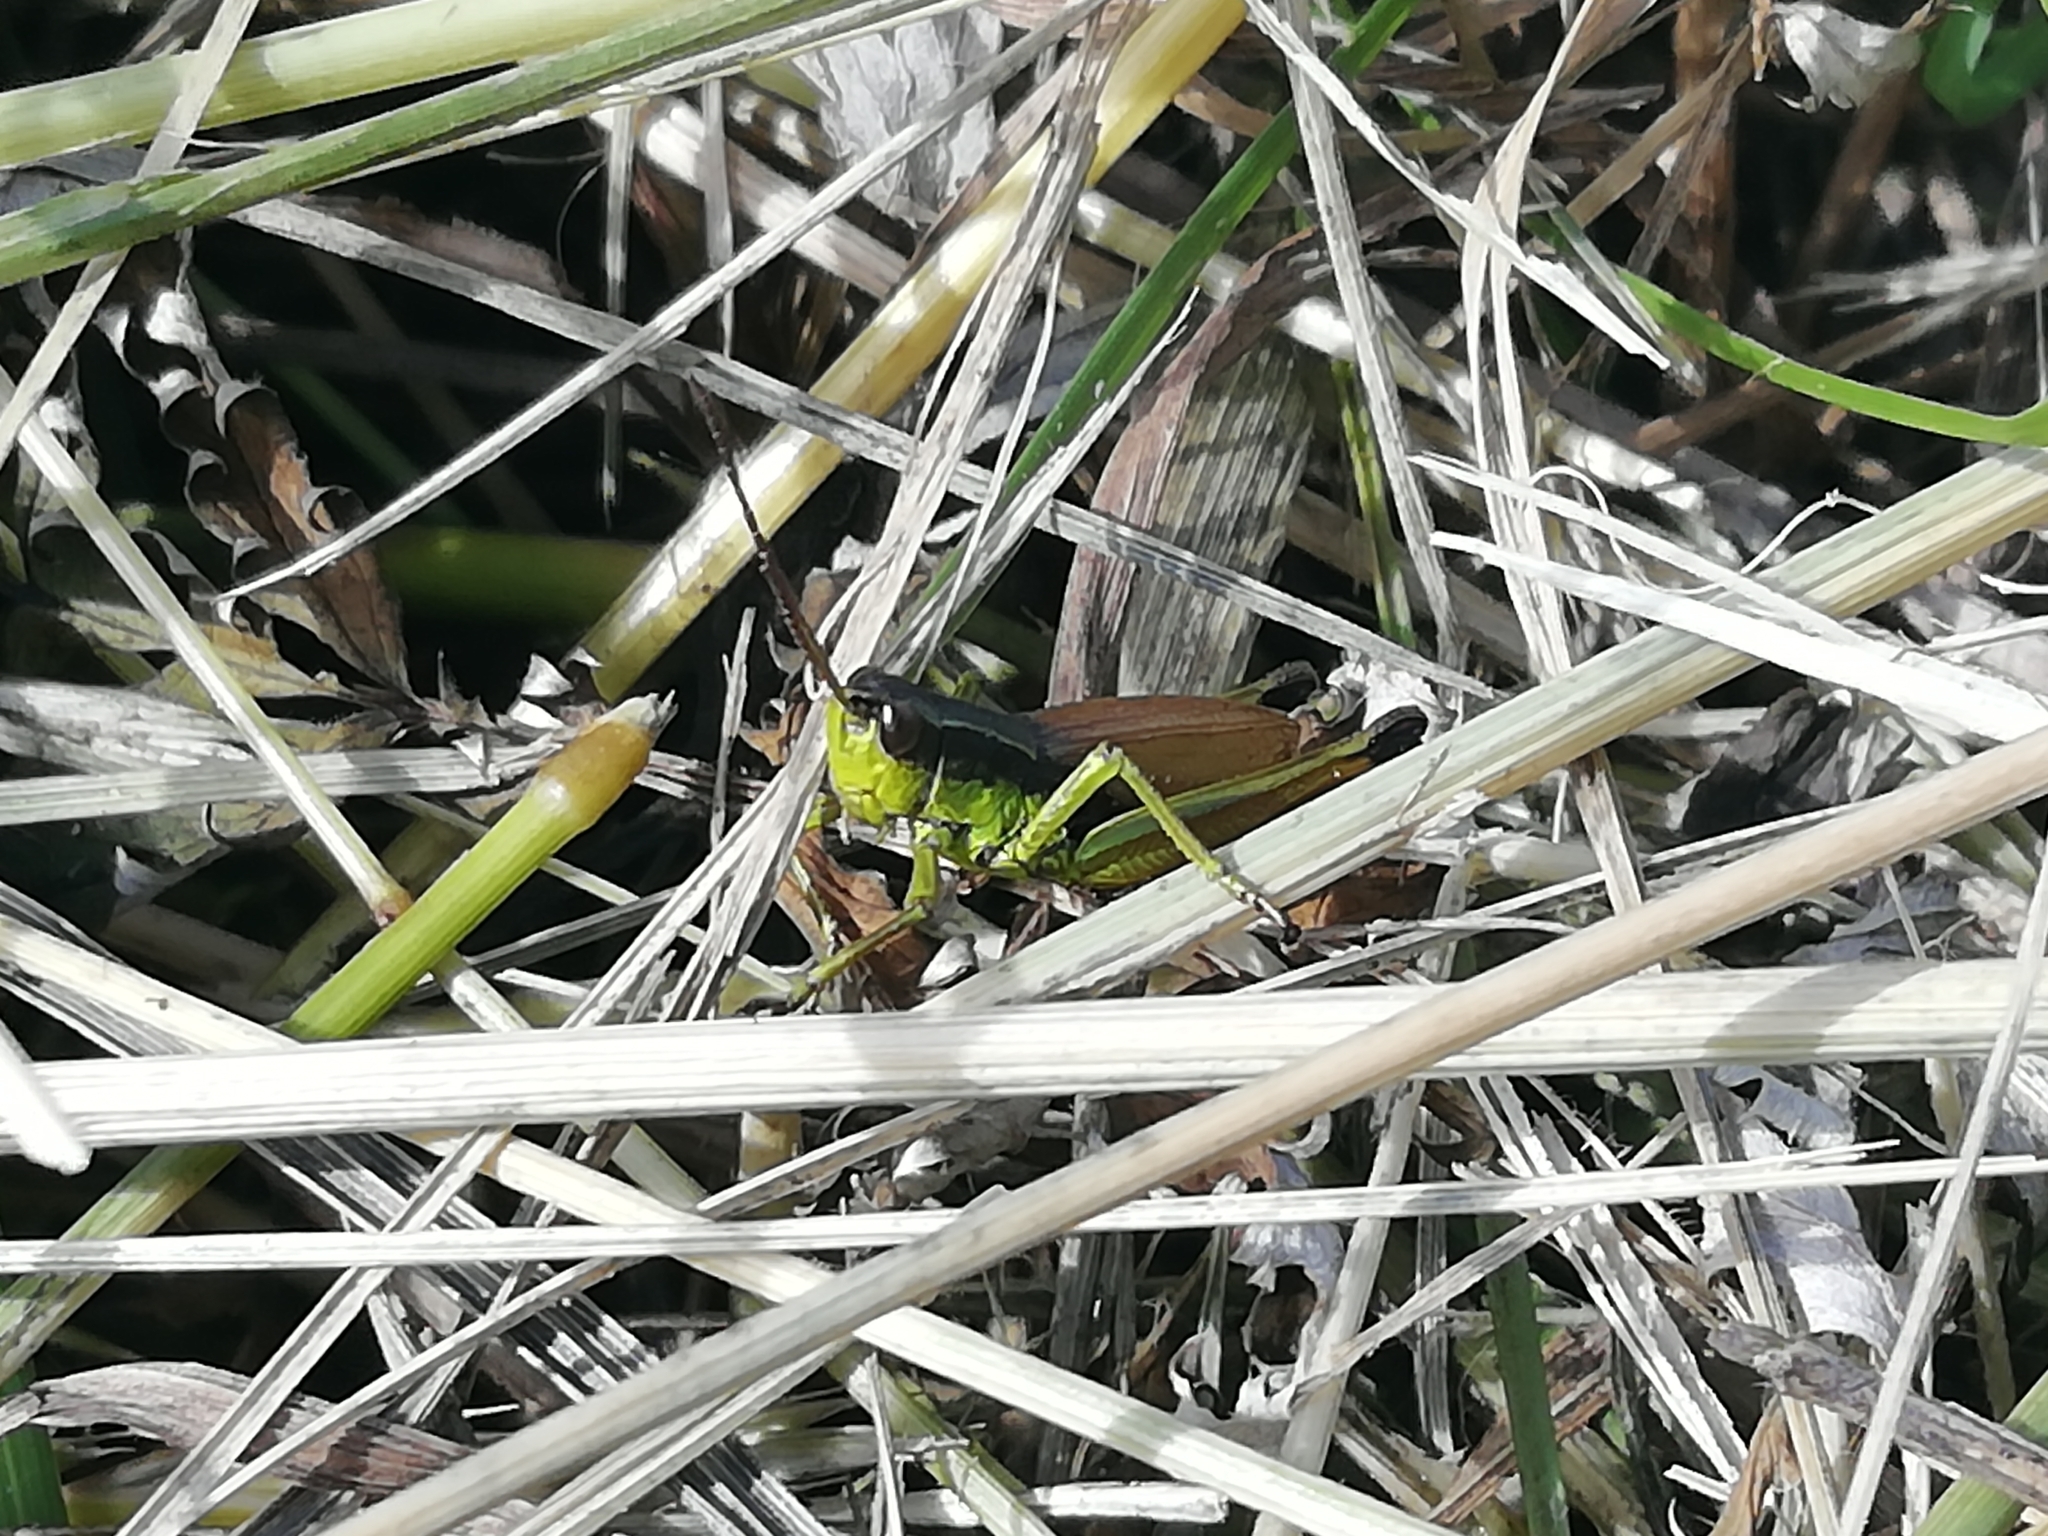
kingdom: Animalia
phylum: Arthropoda
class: Insecta
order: Orthoptera
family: Acrididae
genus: Podismopsis
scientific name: Podismopsis poppiusi
